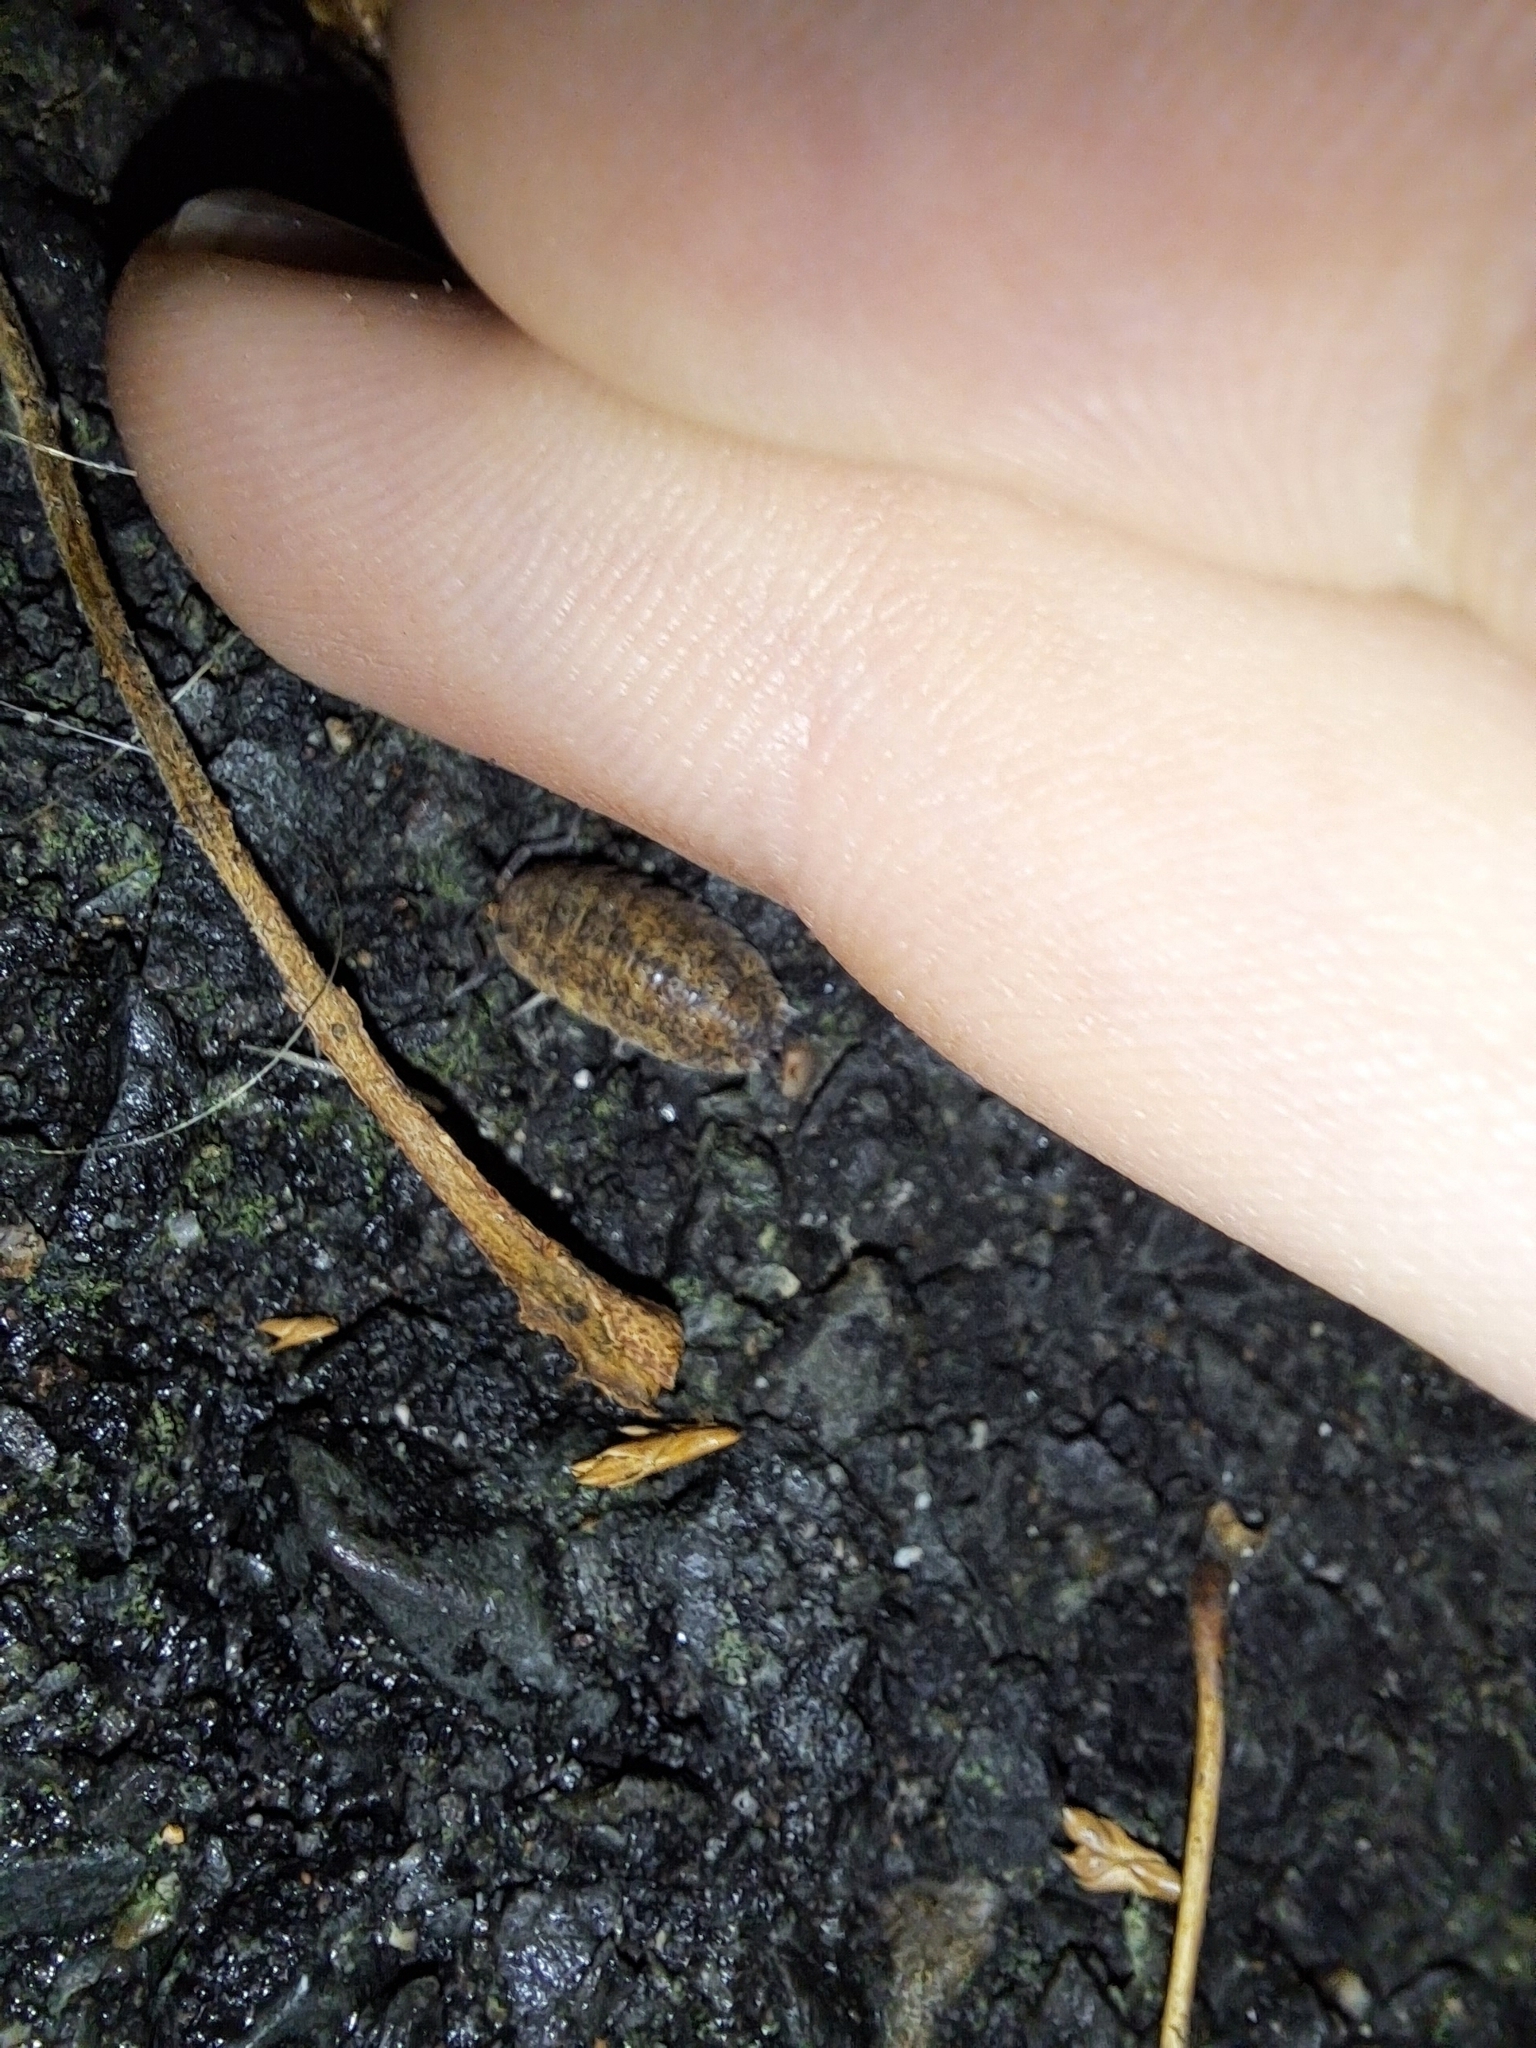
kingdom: Animalia
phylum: Arthropoda
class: Malacostraca
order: Isopoda
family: Porcellionidae
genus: Porcellio
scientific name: Porcellio scaber
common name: Common rough woodlouse
